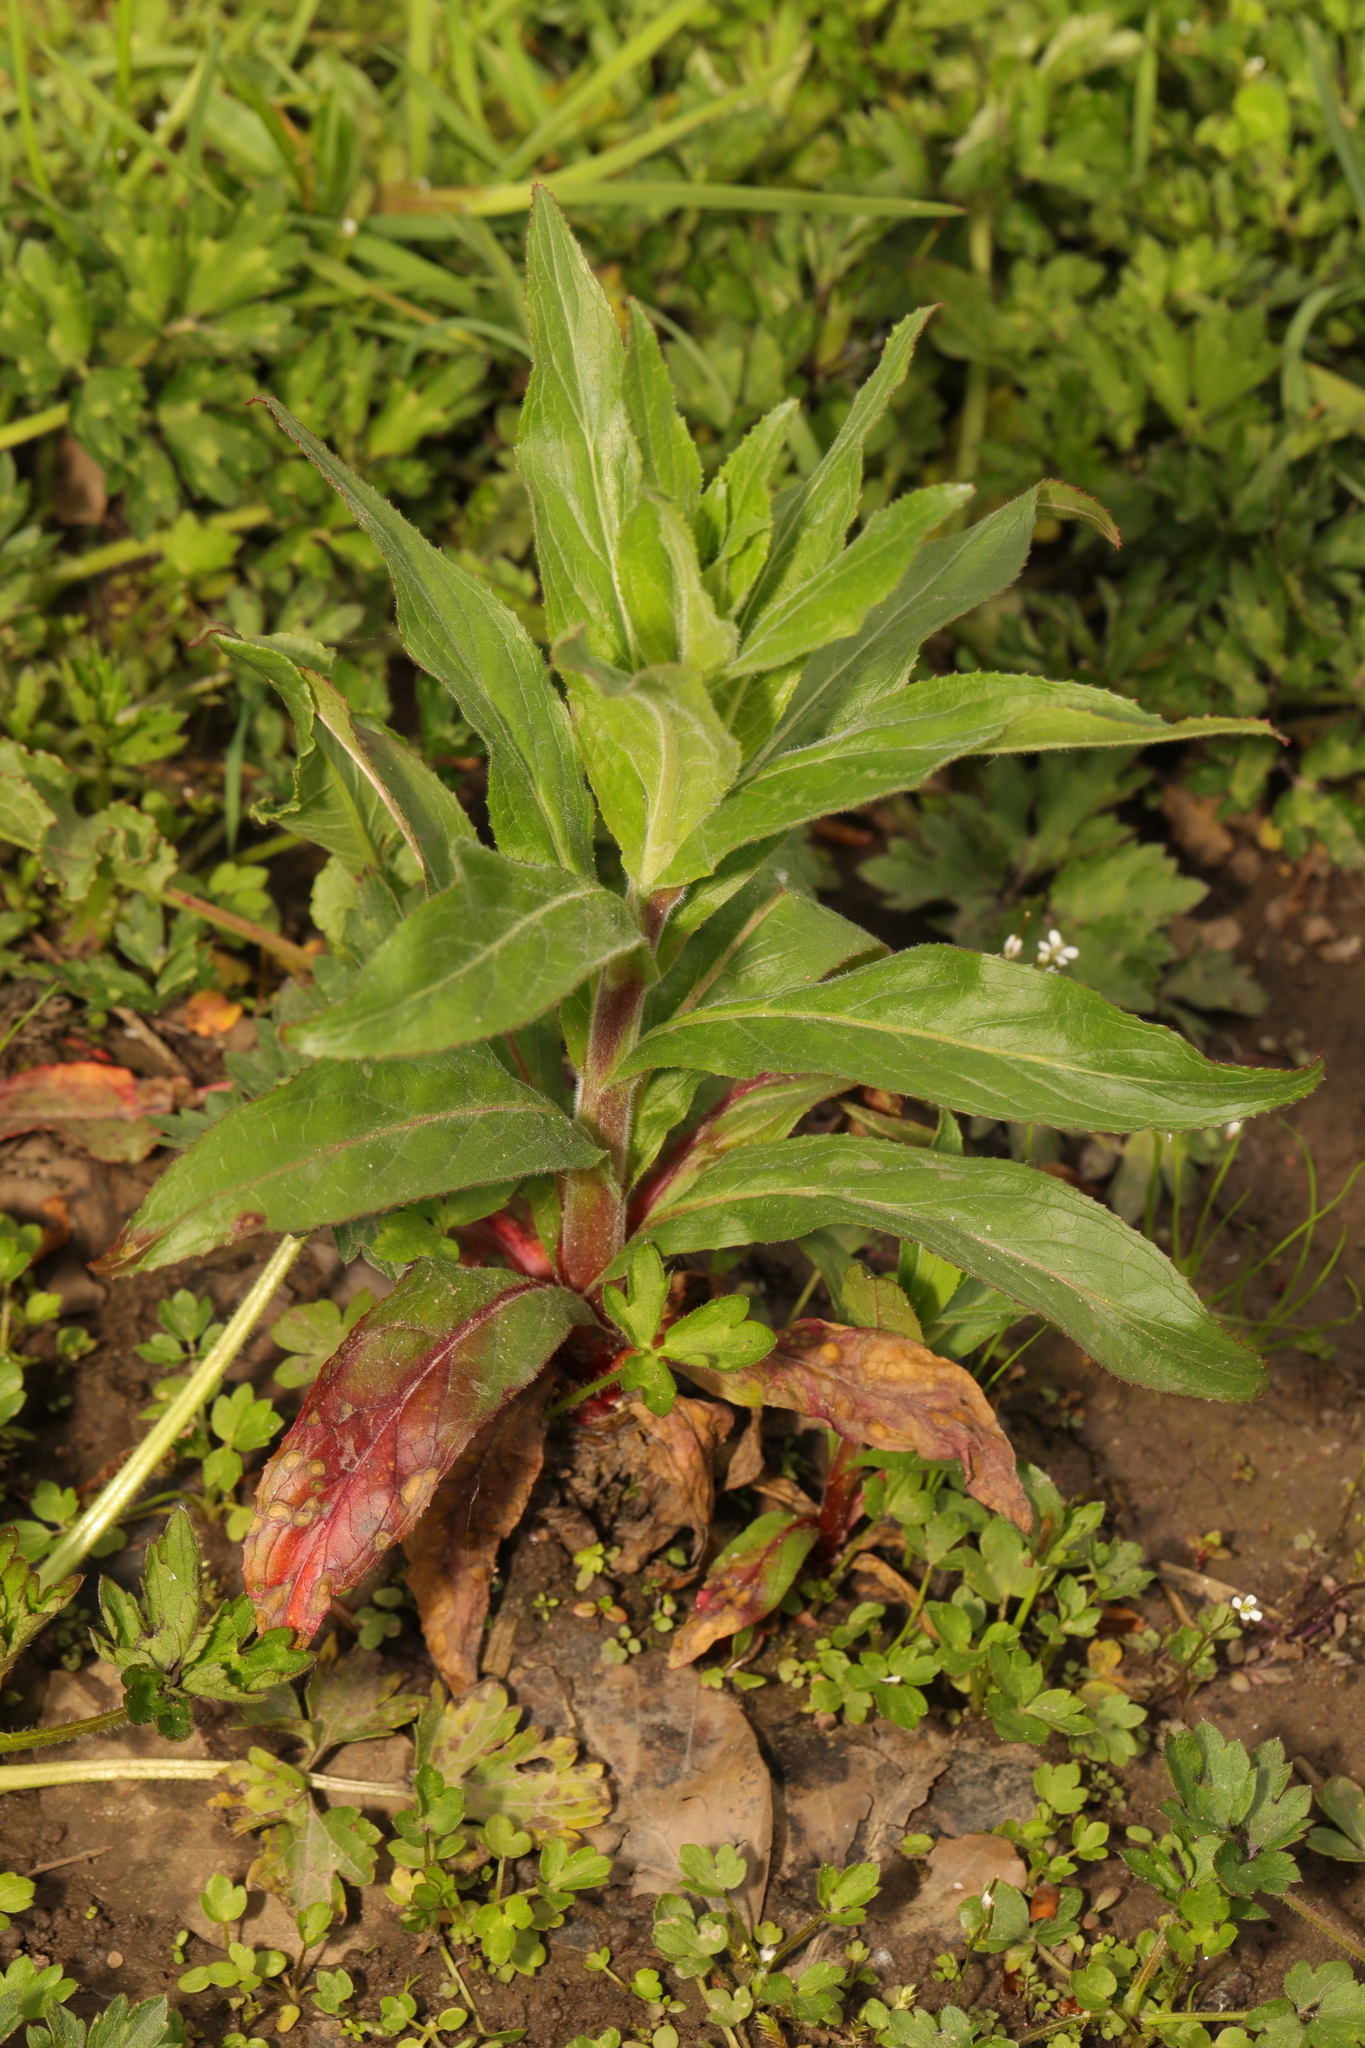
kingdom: Plantae
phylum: Tracheophyta
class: Magnoliopsida
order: Myrtales
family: Onagraceae
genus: Epilobium
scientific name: Epilobium hirsutum
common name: Great willowherb
